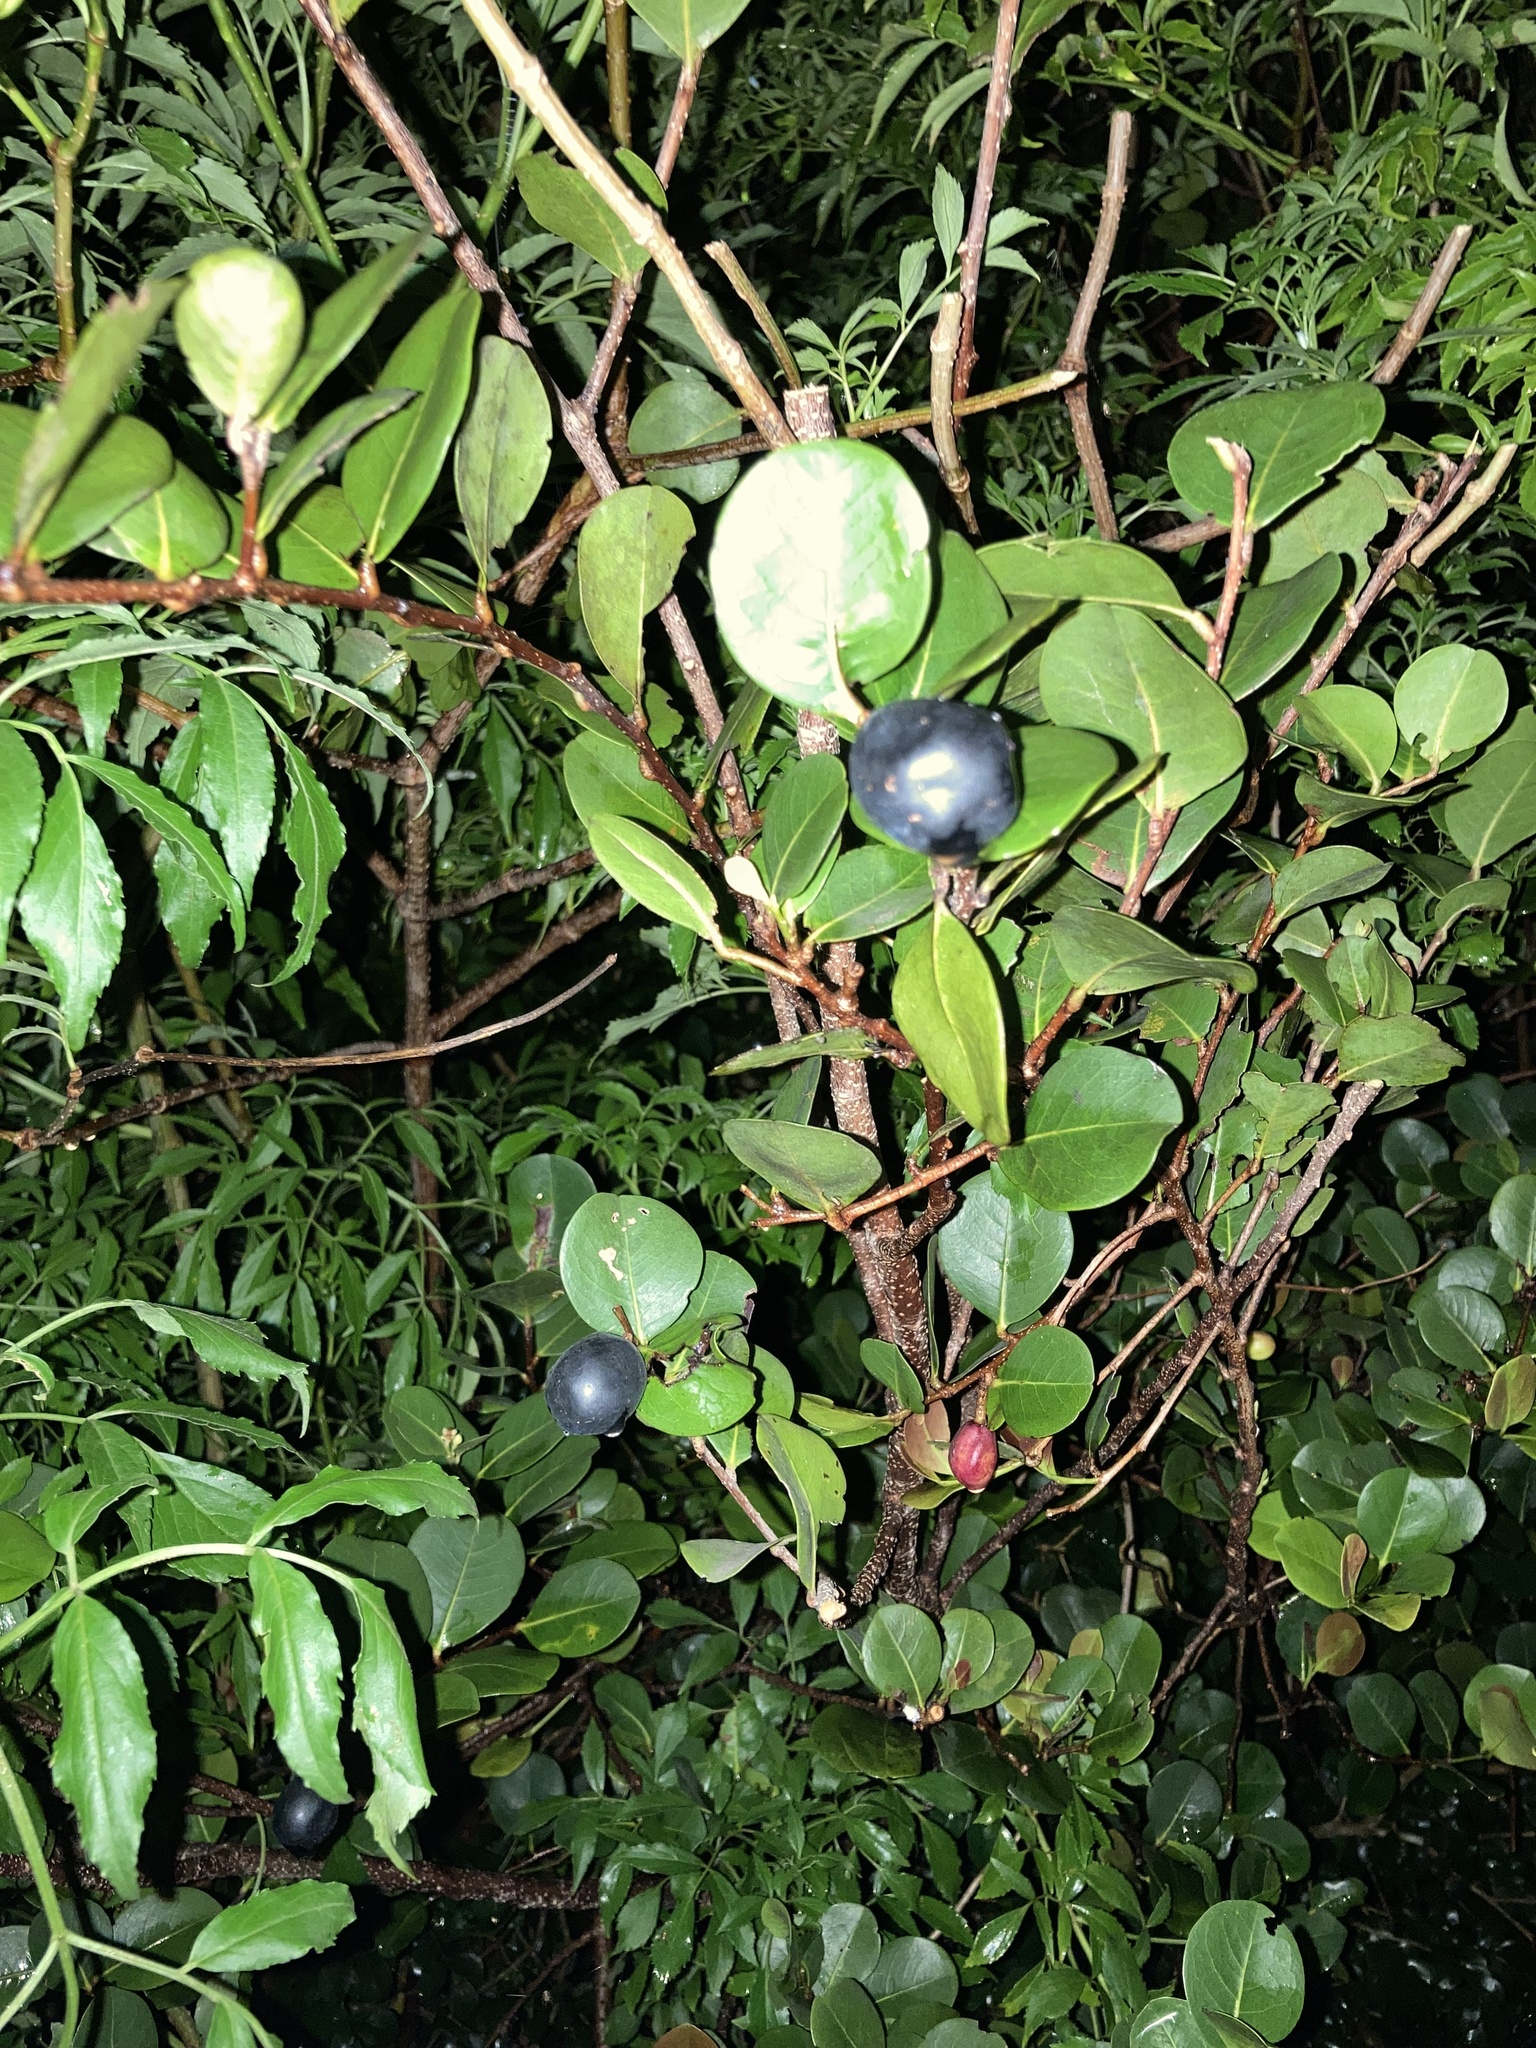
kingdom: Plantae
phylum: Tracheophyta
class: Magnoliopsida
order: Malpighiales
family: Chrysobalanaceae
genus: Chrysobalanus
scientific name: Chrysobalanus icaco
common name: Coco plum
